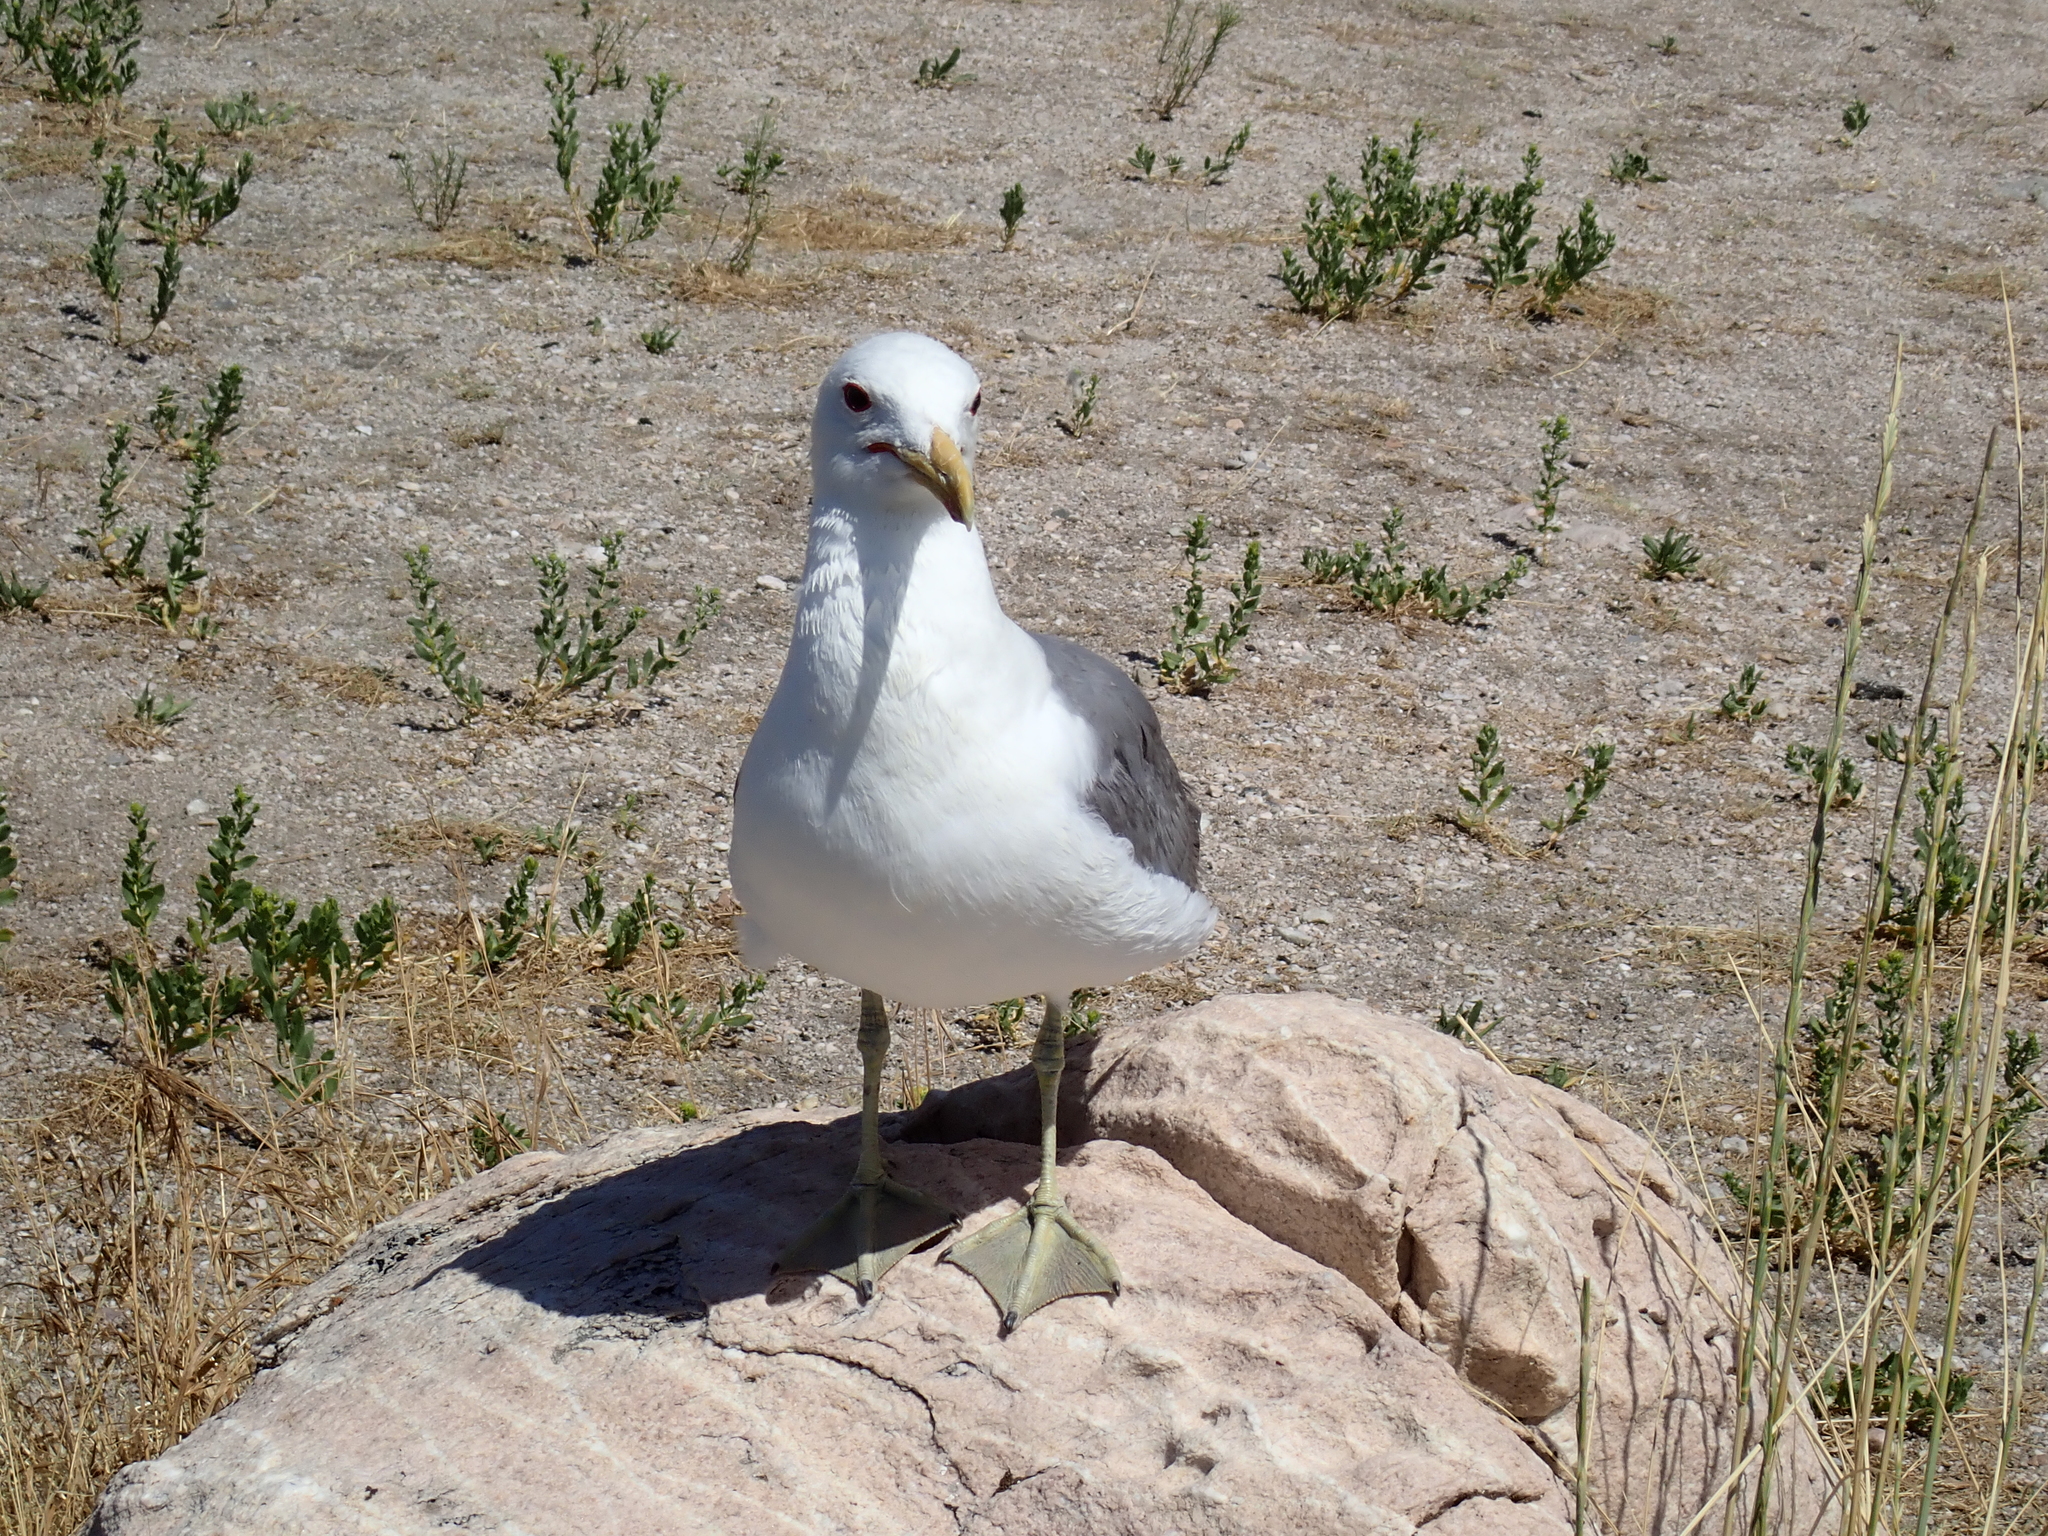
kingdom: Animalia
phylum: Chordata
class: Aves
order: Charadriiformes
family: Laridae
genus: Larus
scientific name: Larus californicus
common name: California gull
